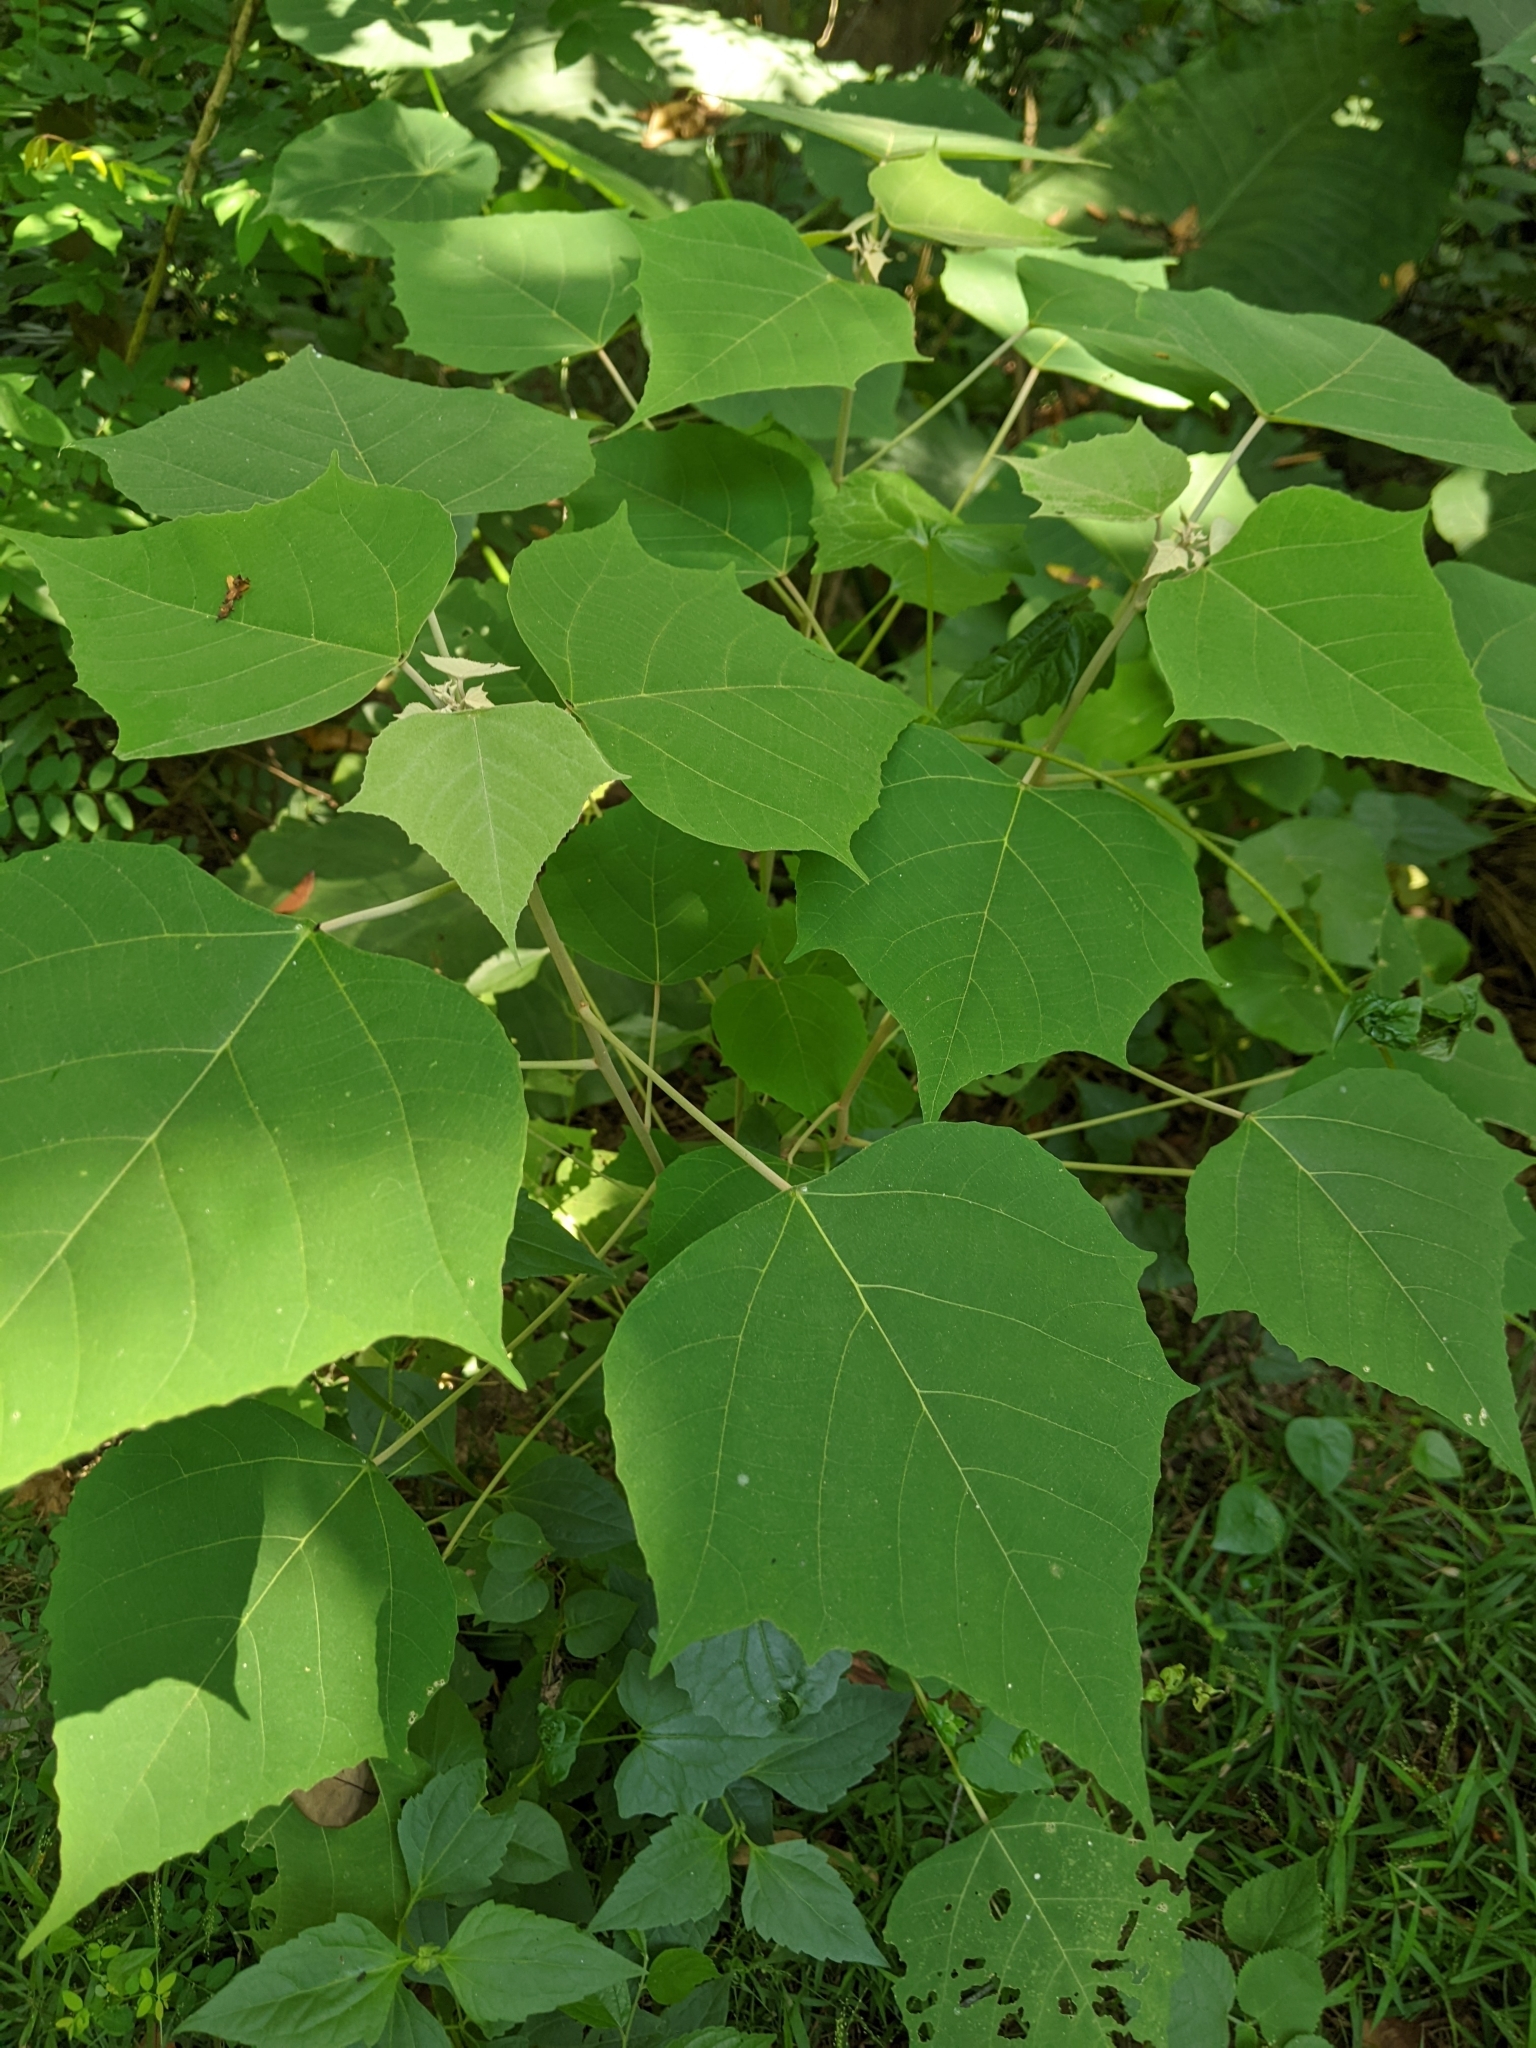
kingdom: Plantae
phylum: Tracheophyta
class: Magnoliopsida
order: Malpighiales
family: Euphorbiaceae
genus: Mallotus
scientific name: Mallotus paniculatus
